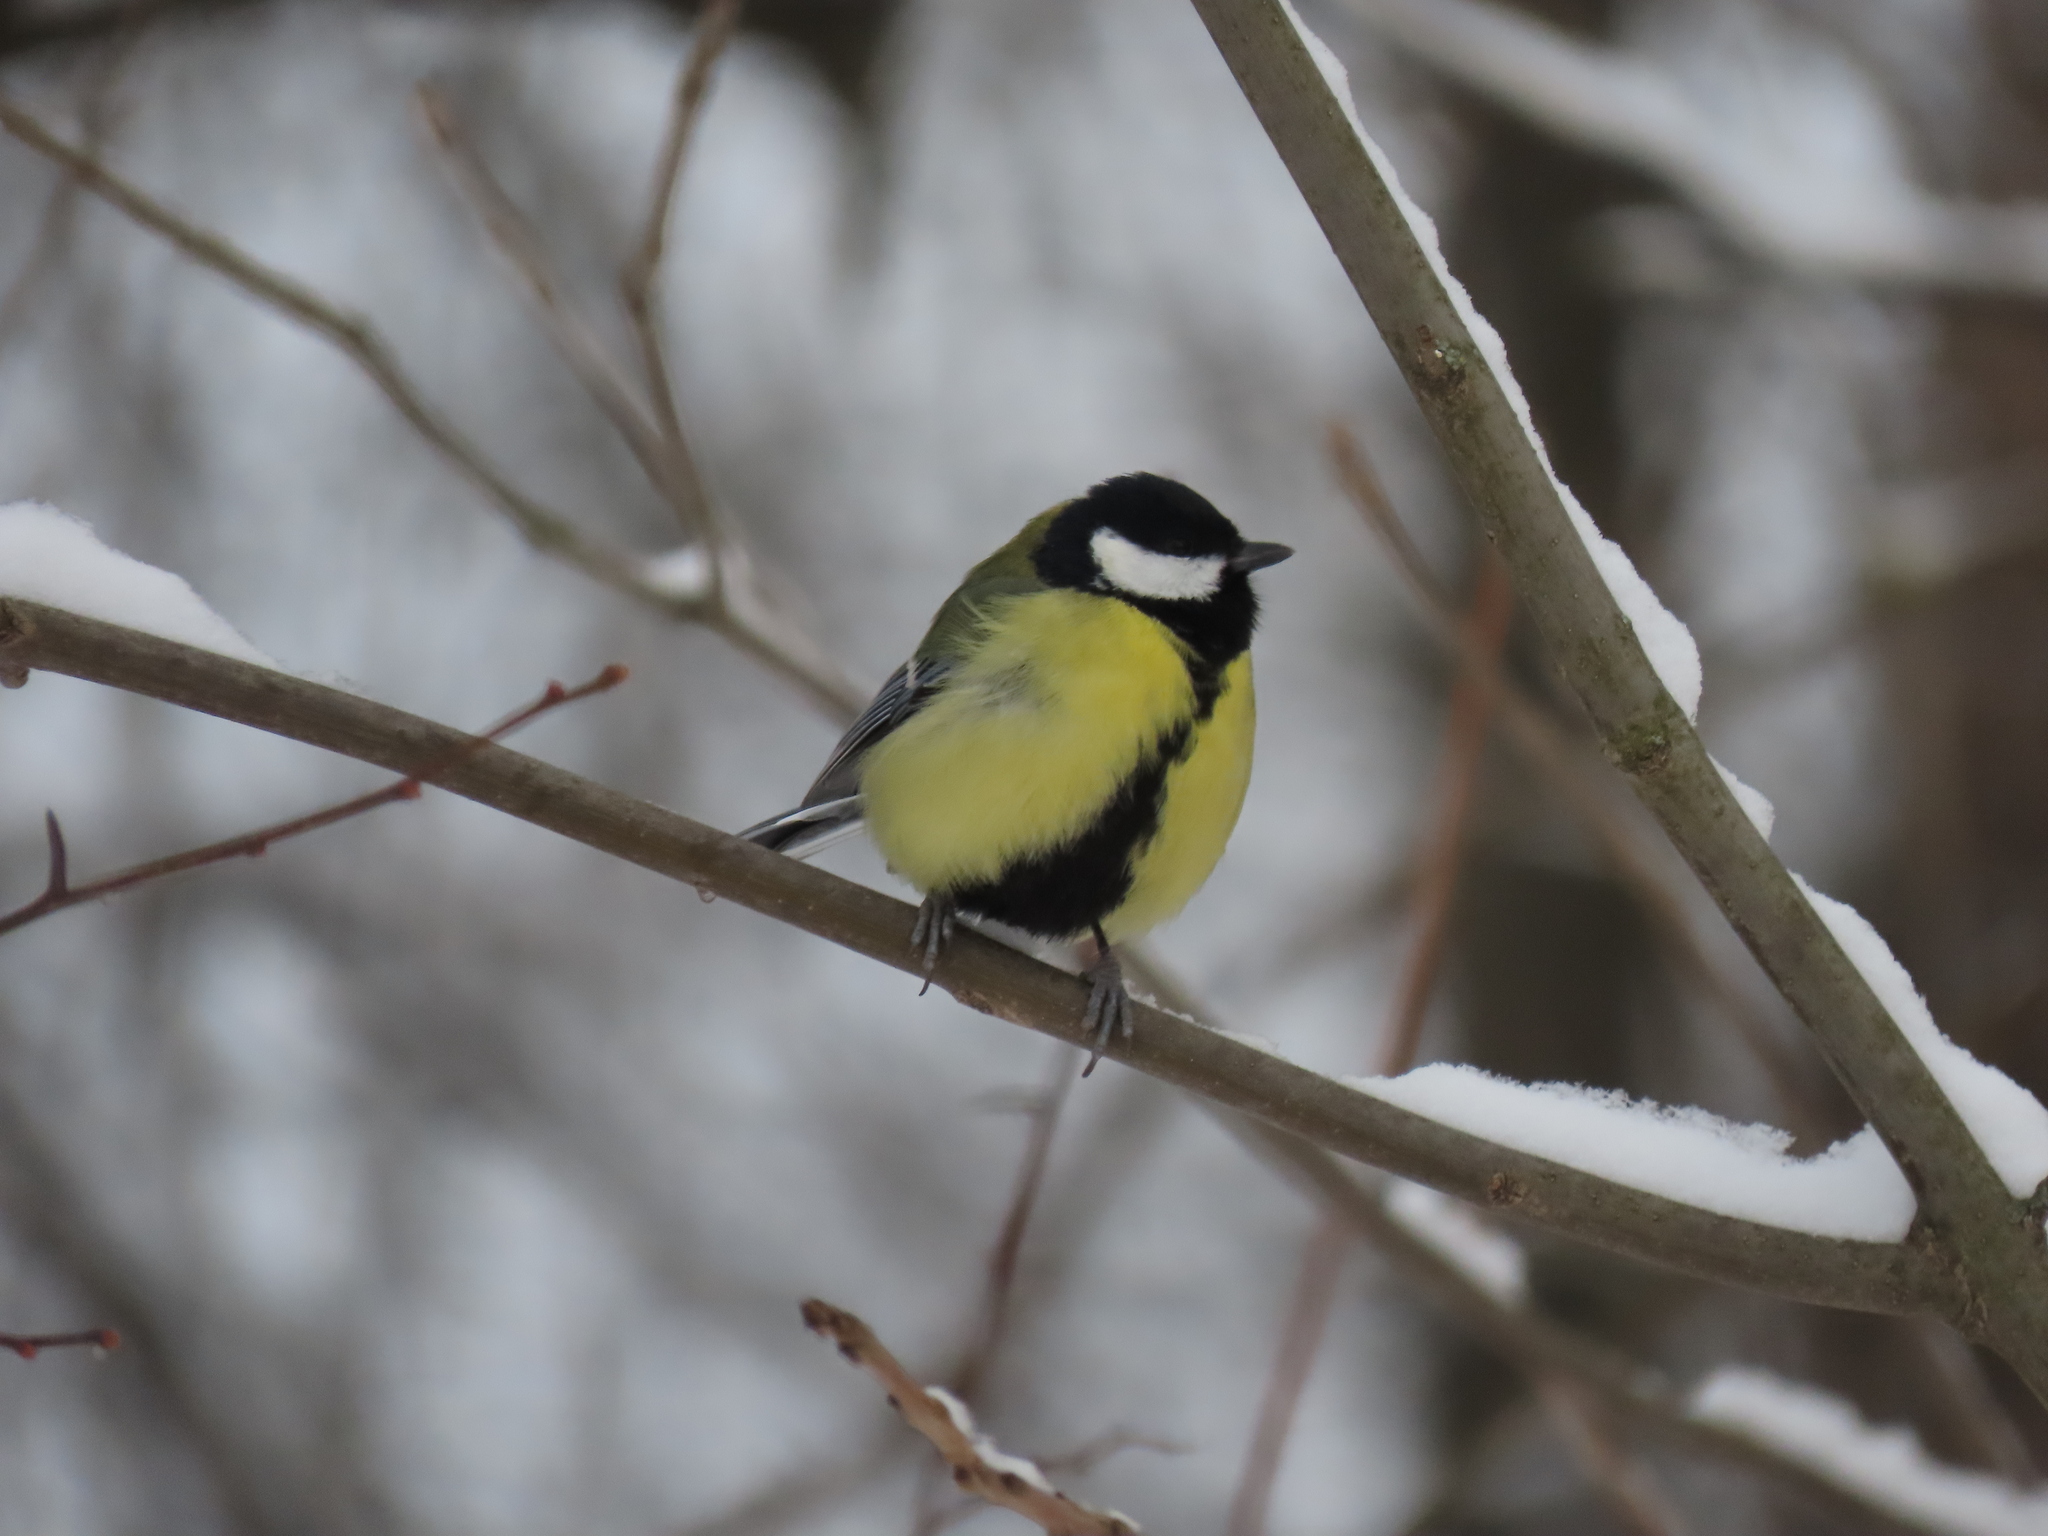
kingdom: Animalia
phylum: Chordata
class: Aves
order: Passeriformes
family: Paridae
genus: Parus
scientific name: Parus major
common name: Great tit
